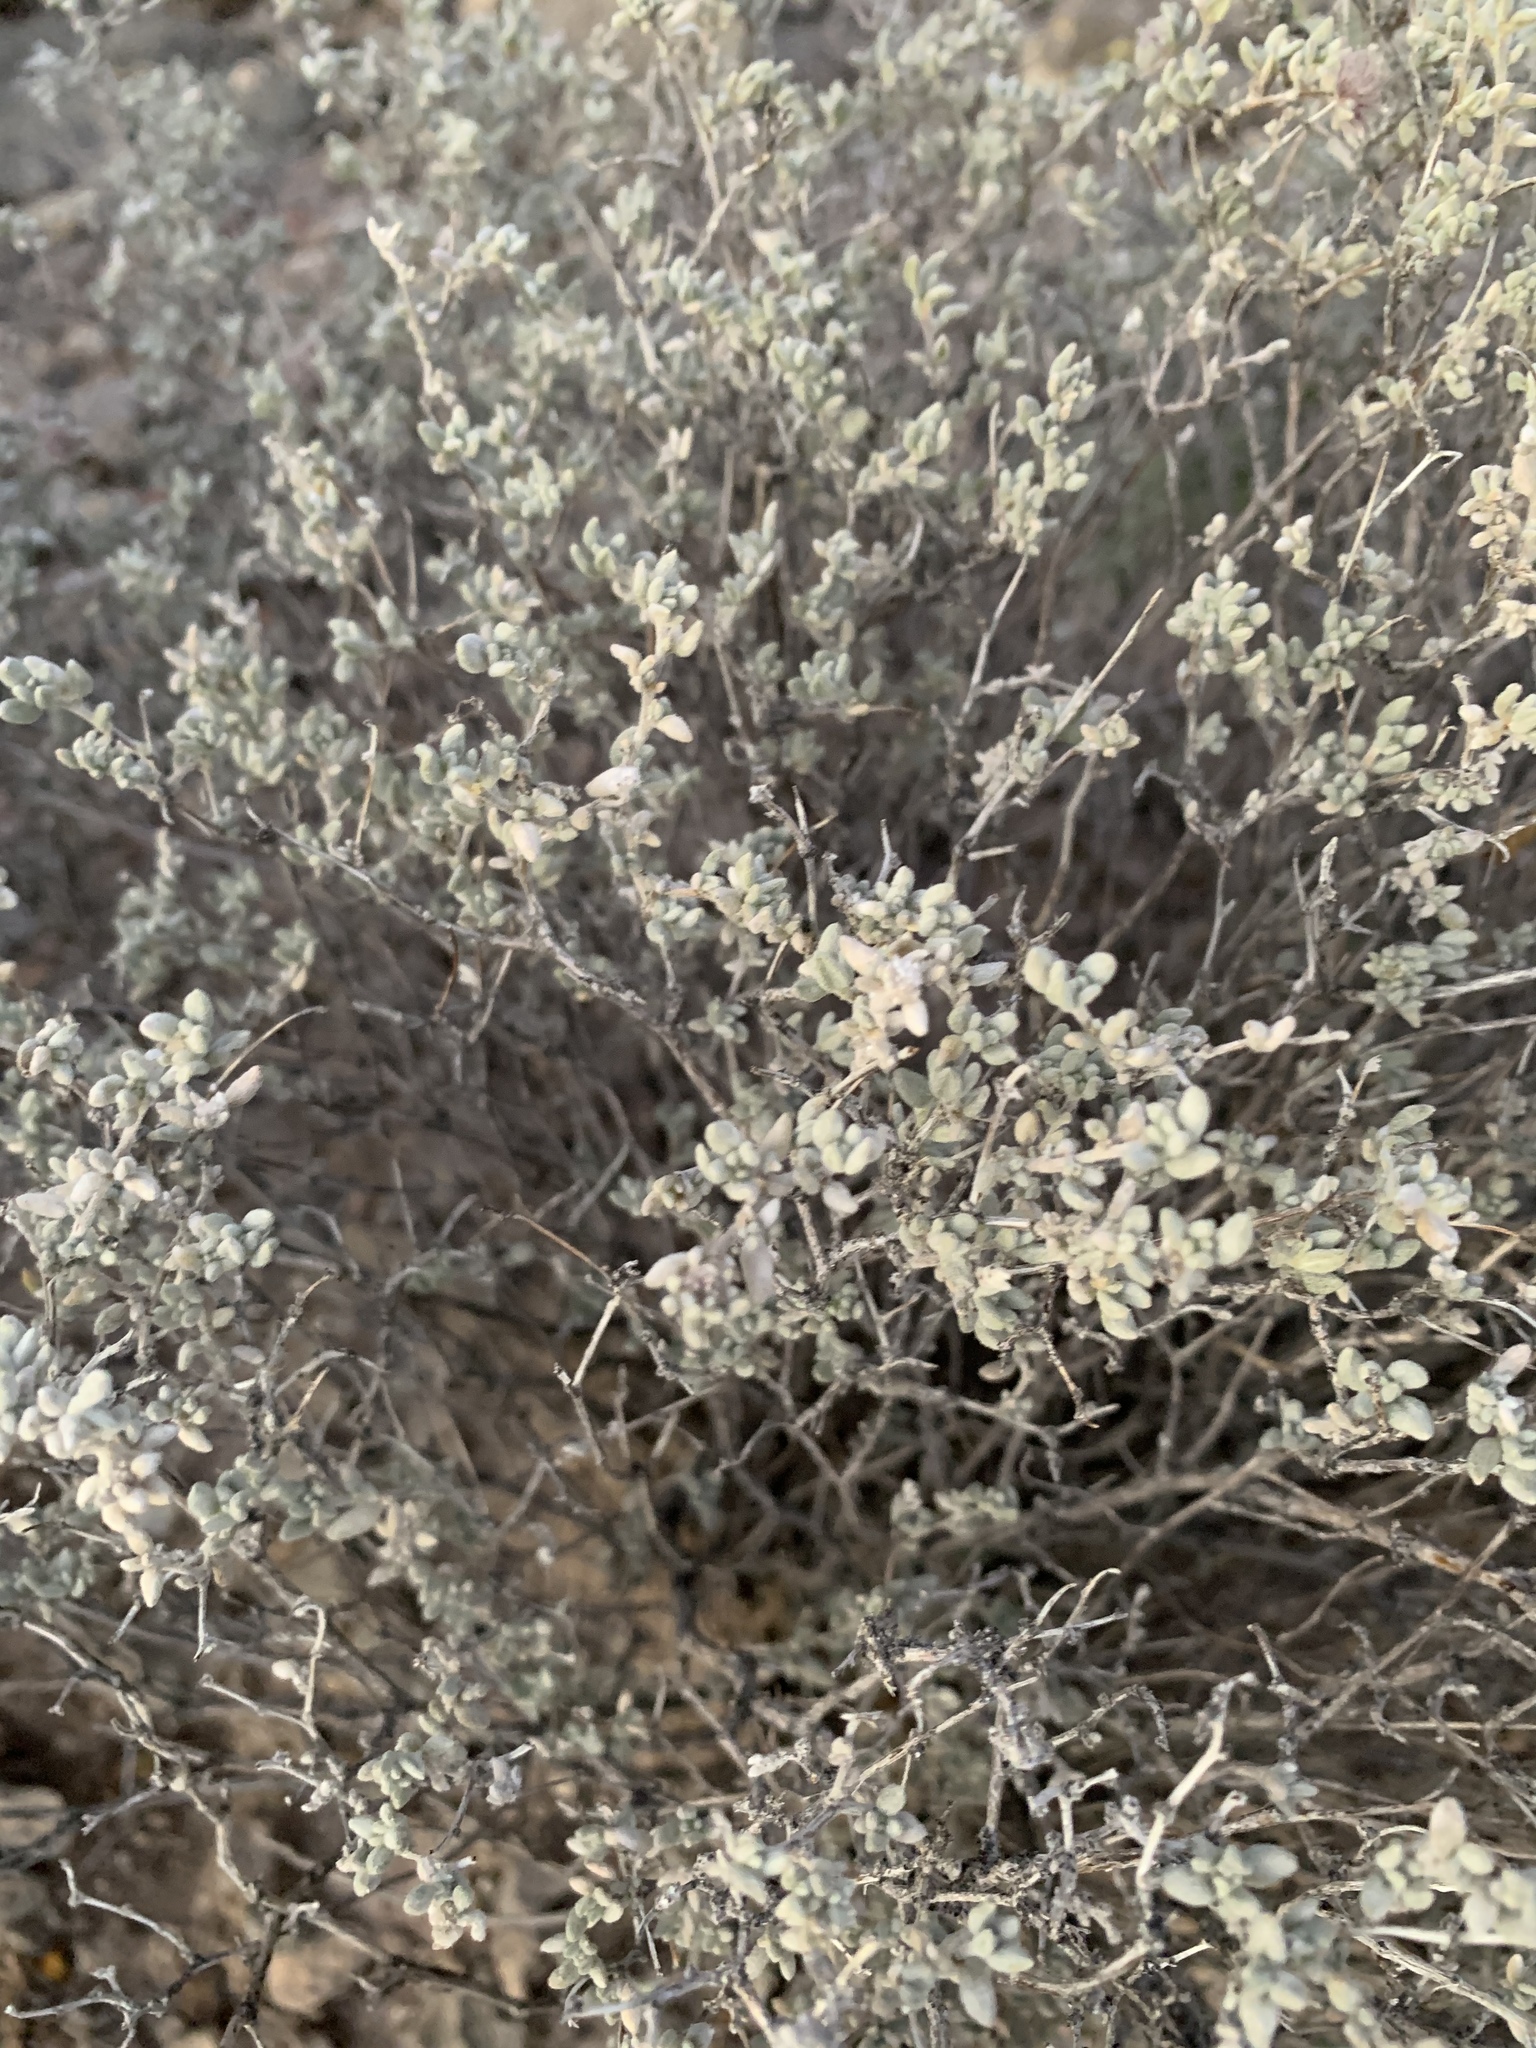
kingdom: Plantae
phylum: Tracheophyta
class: Magnoliopsida
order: Asterales
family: Asteraceae
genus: Parthenium
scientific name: Parthenium incanum
